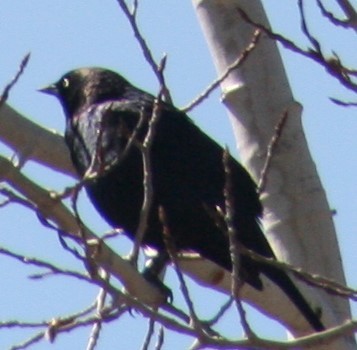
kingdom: Animalia
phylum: Chordata
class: Aves
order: Passeriformes
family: Icteridae
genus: Euphagus
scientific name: Euphagus cyanocephalus
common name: Brewer's blackbird
